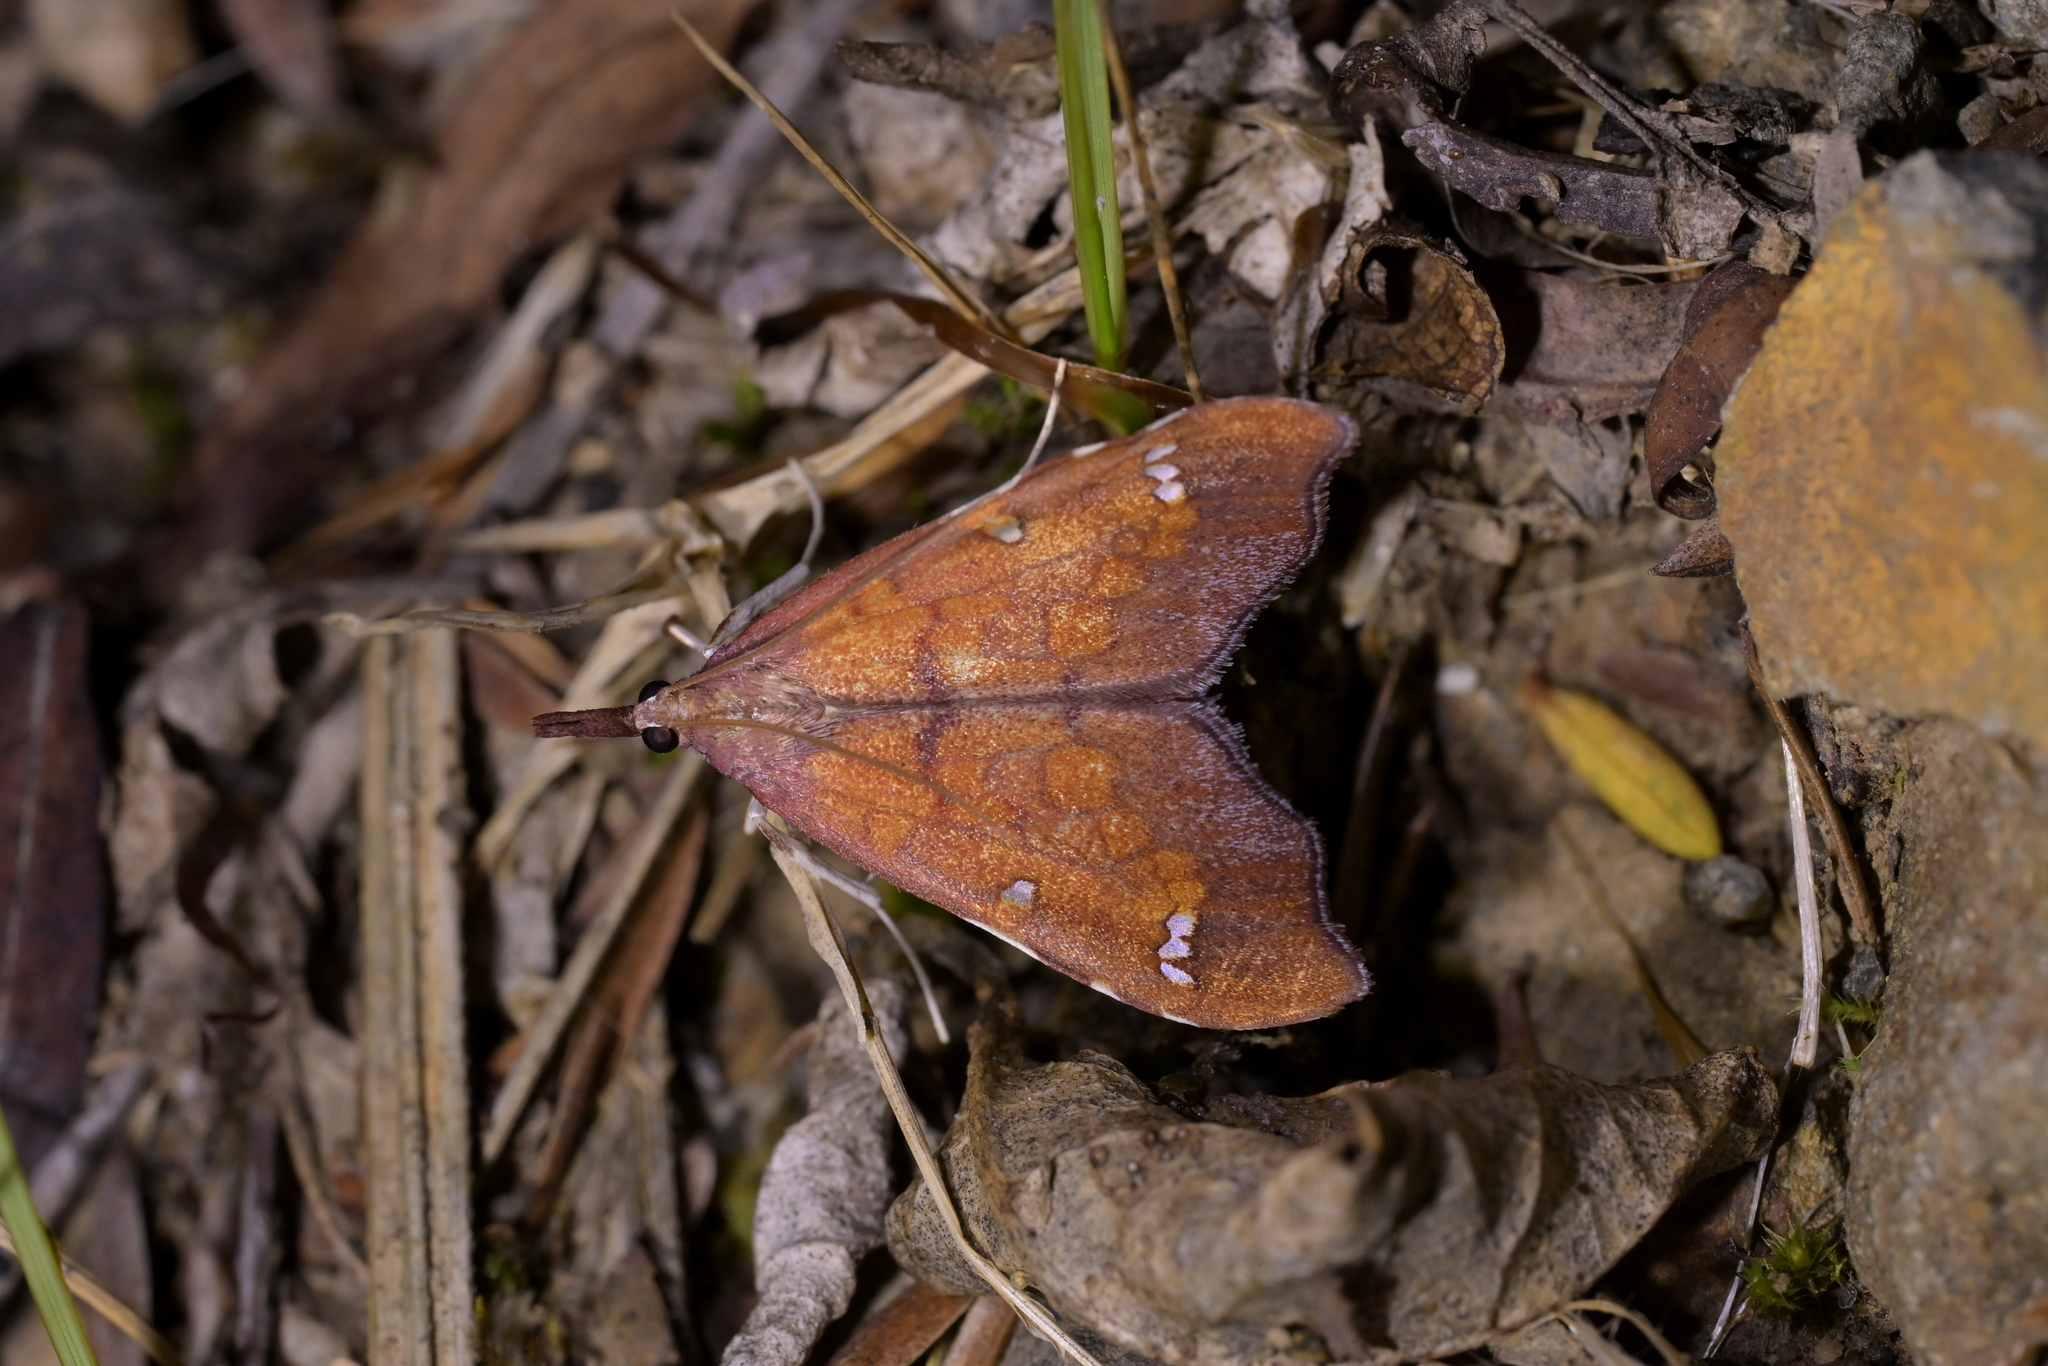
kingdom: Animalia
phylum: Arthropoda
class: Insecta
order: Lepidoptera
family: Crambidae
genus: Deana
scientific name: Deana hybreasalis
